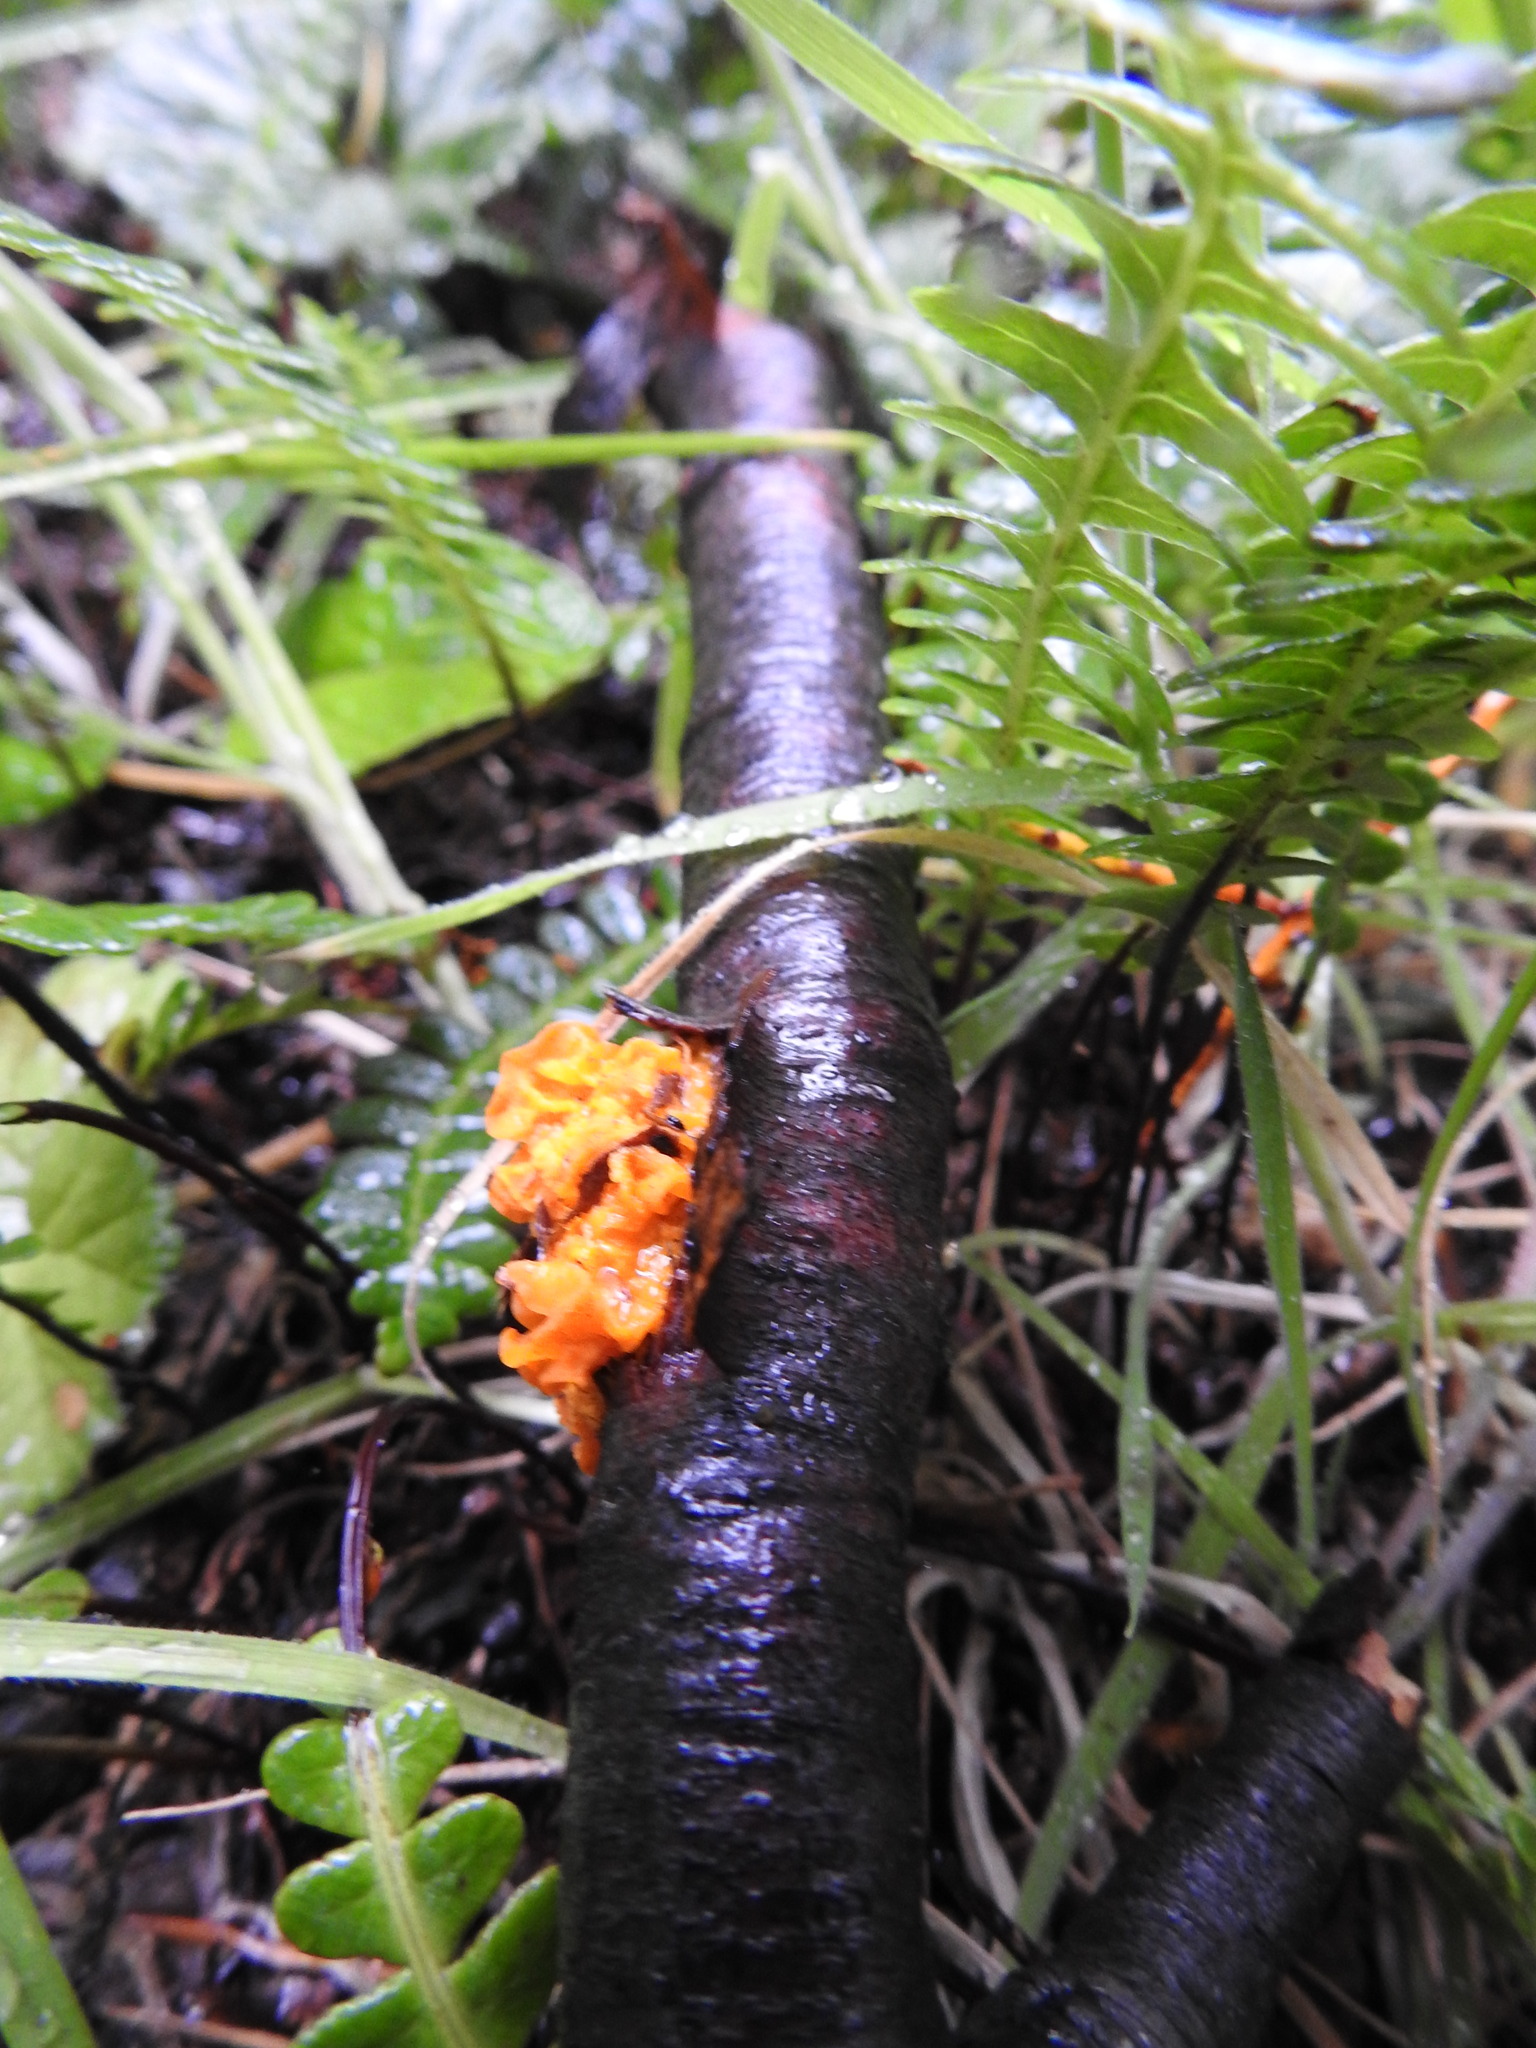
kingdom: Fungi
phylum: Basidiomycota
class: Tremellomycetes
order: Tremellales
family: Tremellaceae
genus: Tremella
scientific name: Tremella mesenterica
